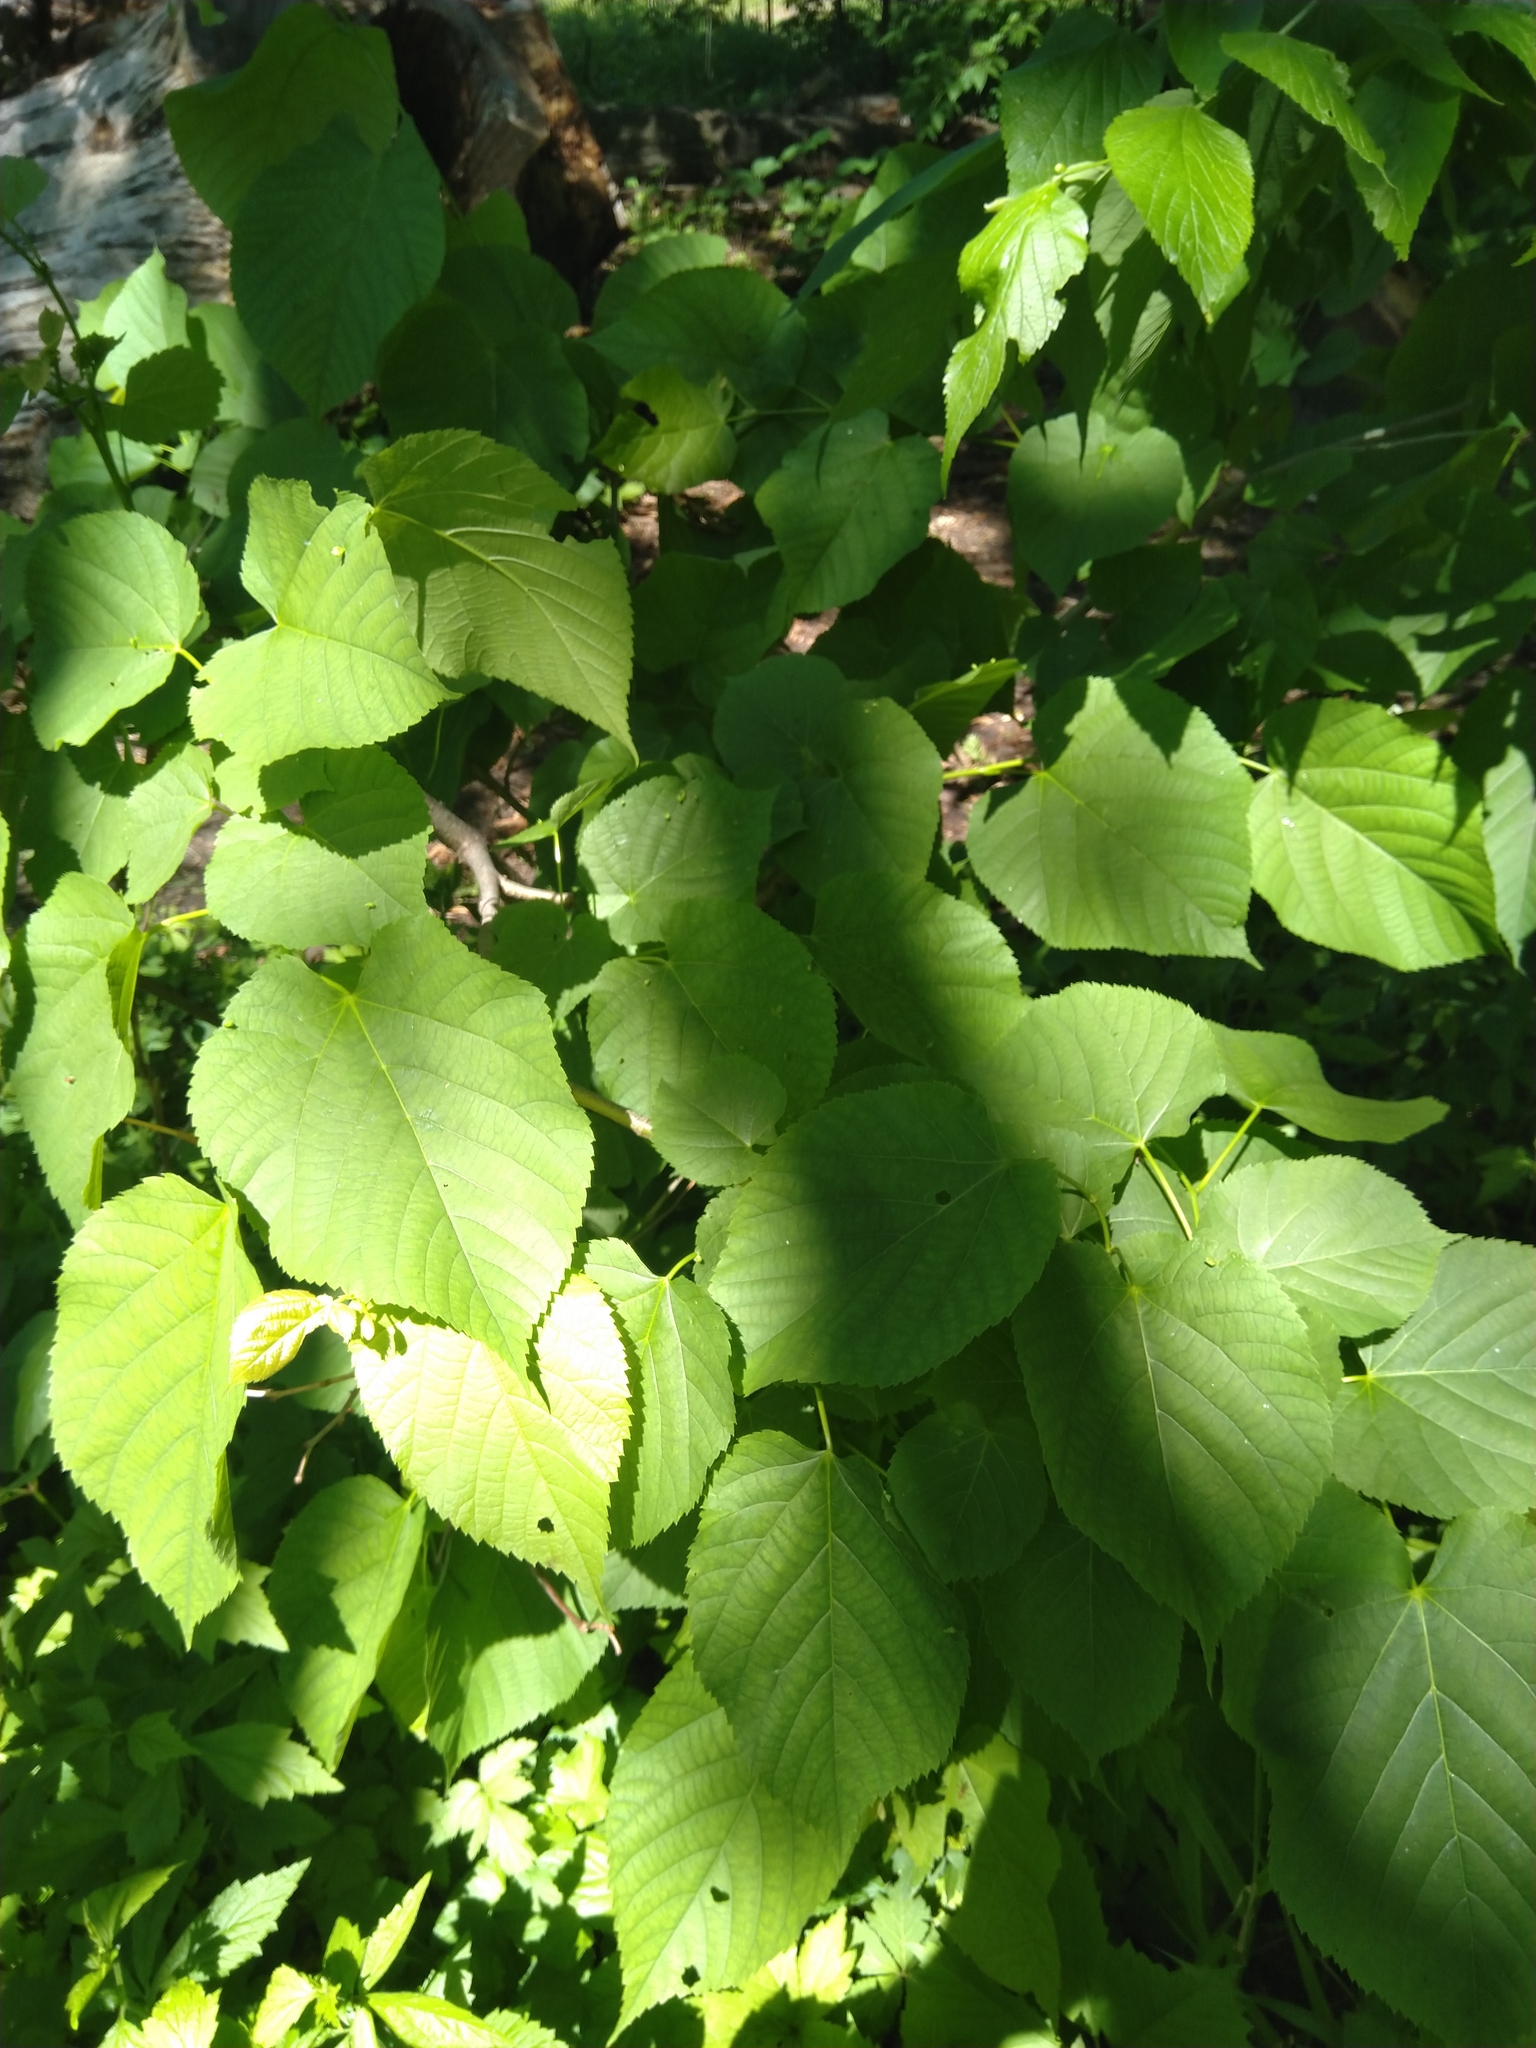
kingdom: Animalia
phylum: Arthropoda
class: Arachnida
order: Trombidiformes
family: Eriophyidae
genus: Eriophyes
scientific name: Eriophyes tiliae
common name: Red nail gall mite
